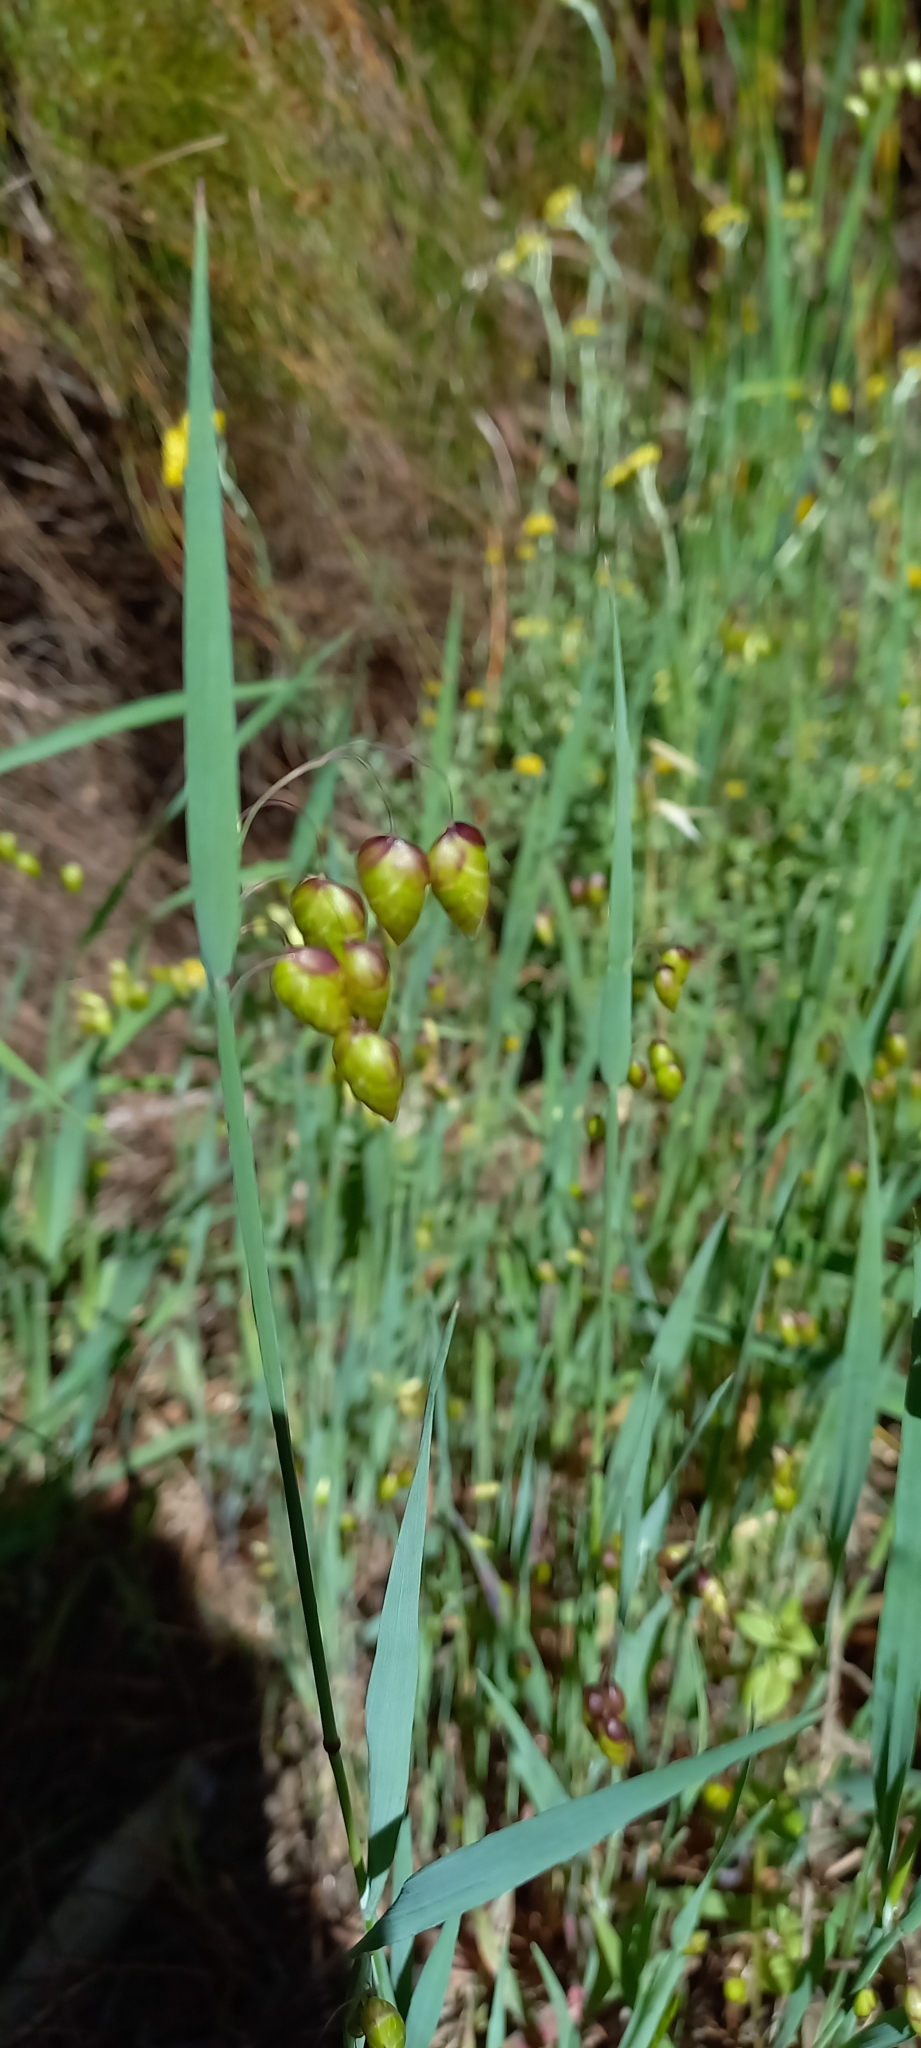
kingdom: Plantae
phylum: Tracheophyta
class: Liliopsida
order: Poales
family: Poaceae
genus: Briza
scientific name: Briza maxima
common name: Big quakinggrass
